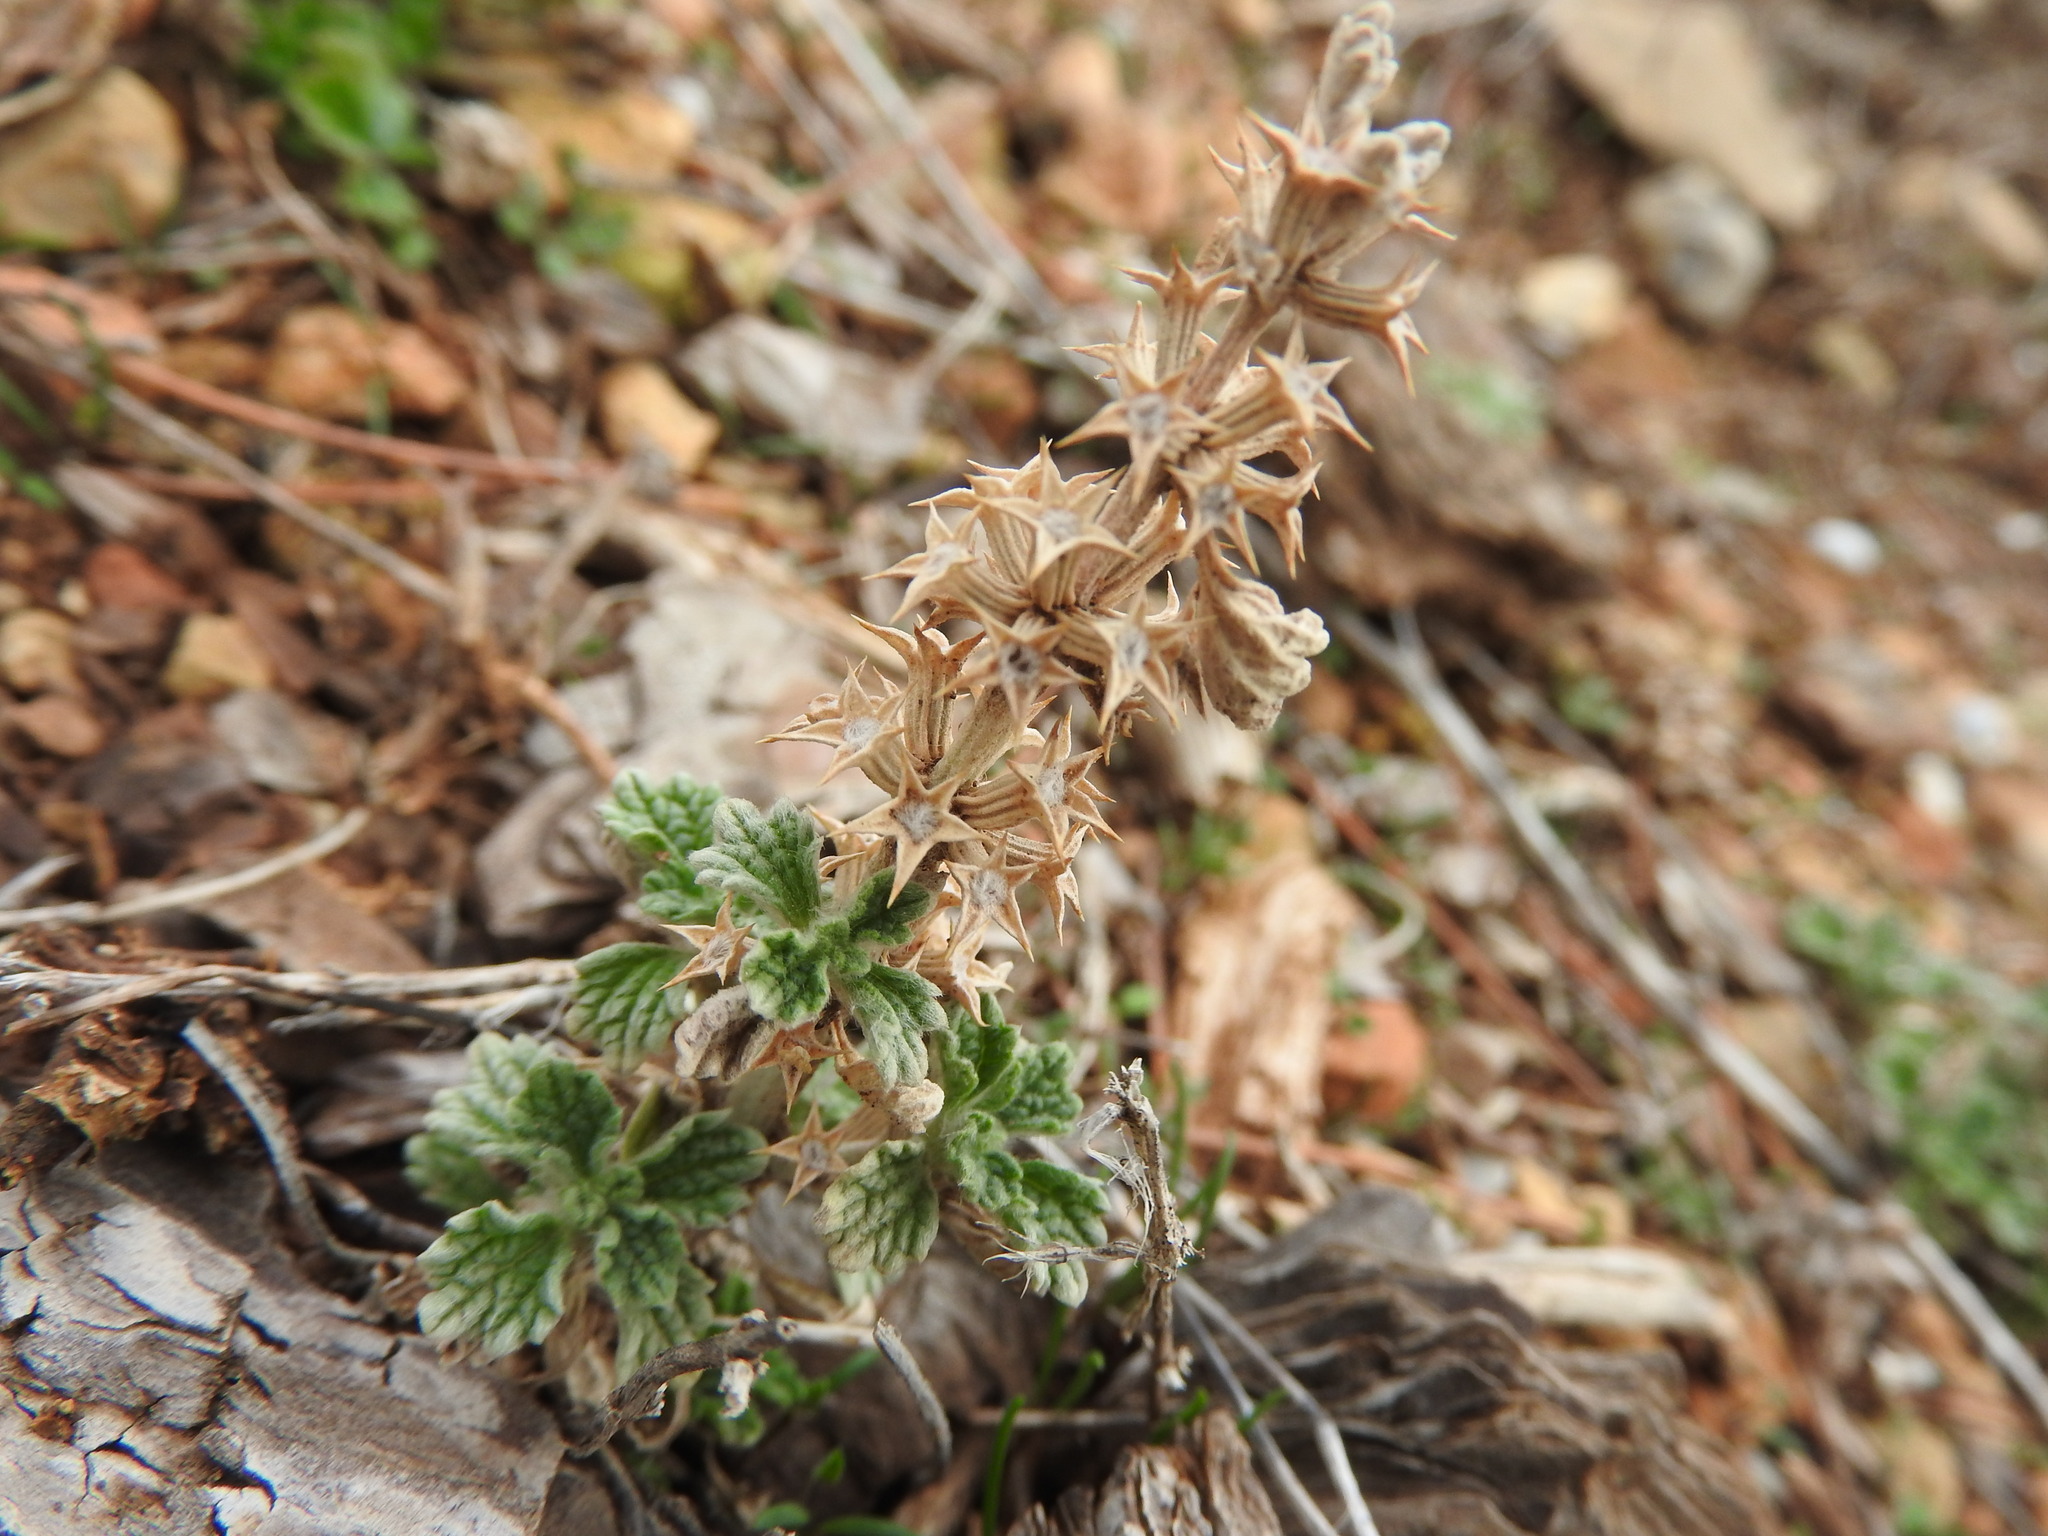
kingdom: Plantae
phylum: Tracheophyta
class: Magnoliopsida
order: Lamiales
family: Lamiaceae
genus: Marrubium
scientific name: Marrubium alysson
